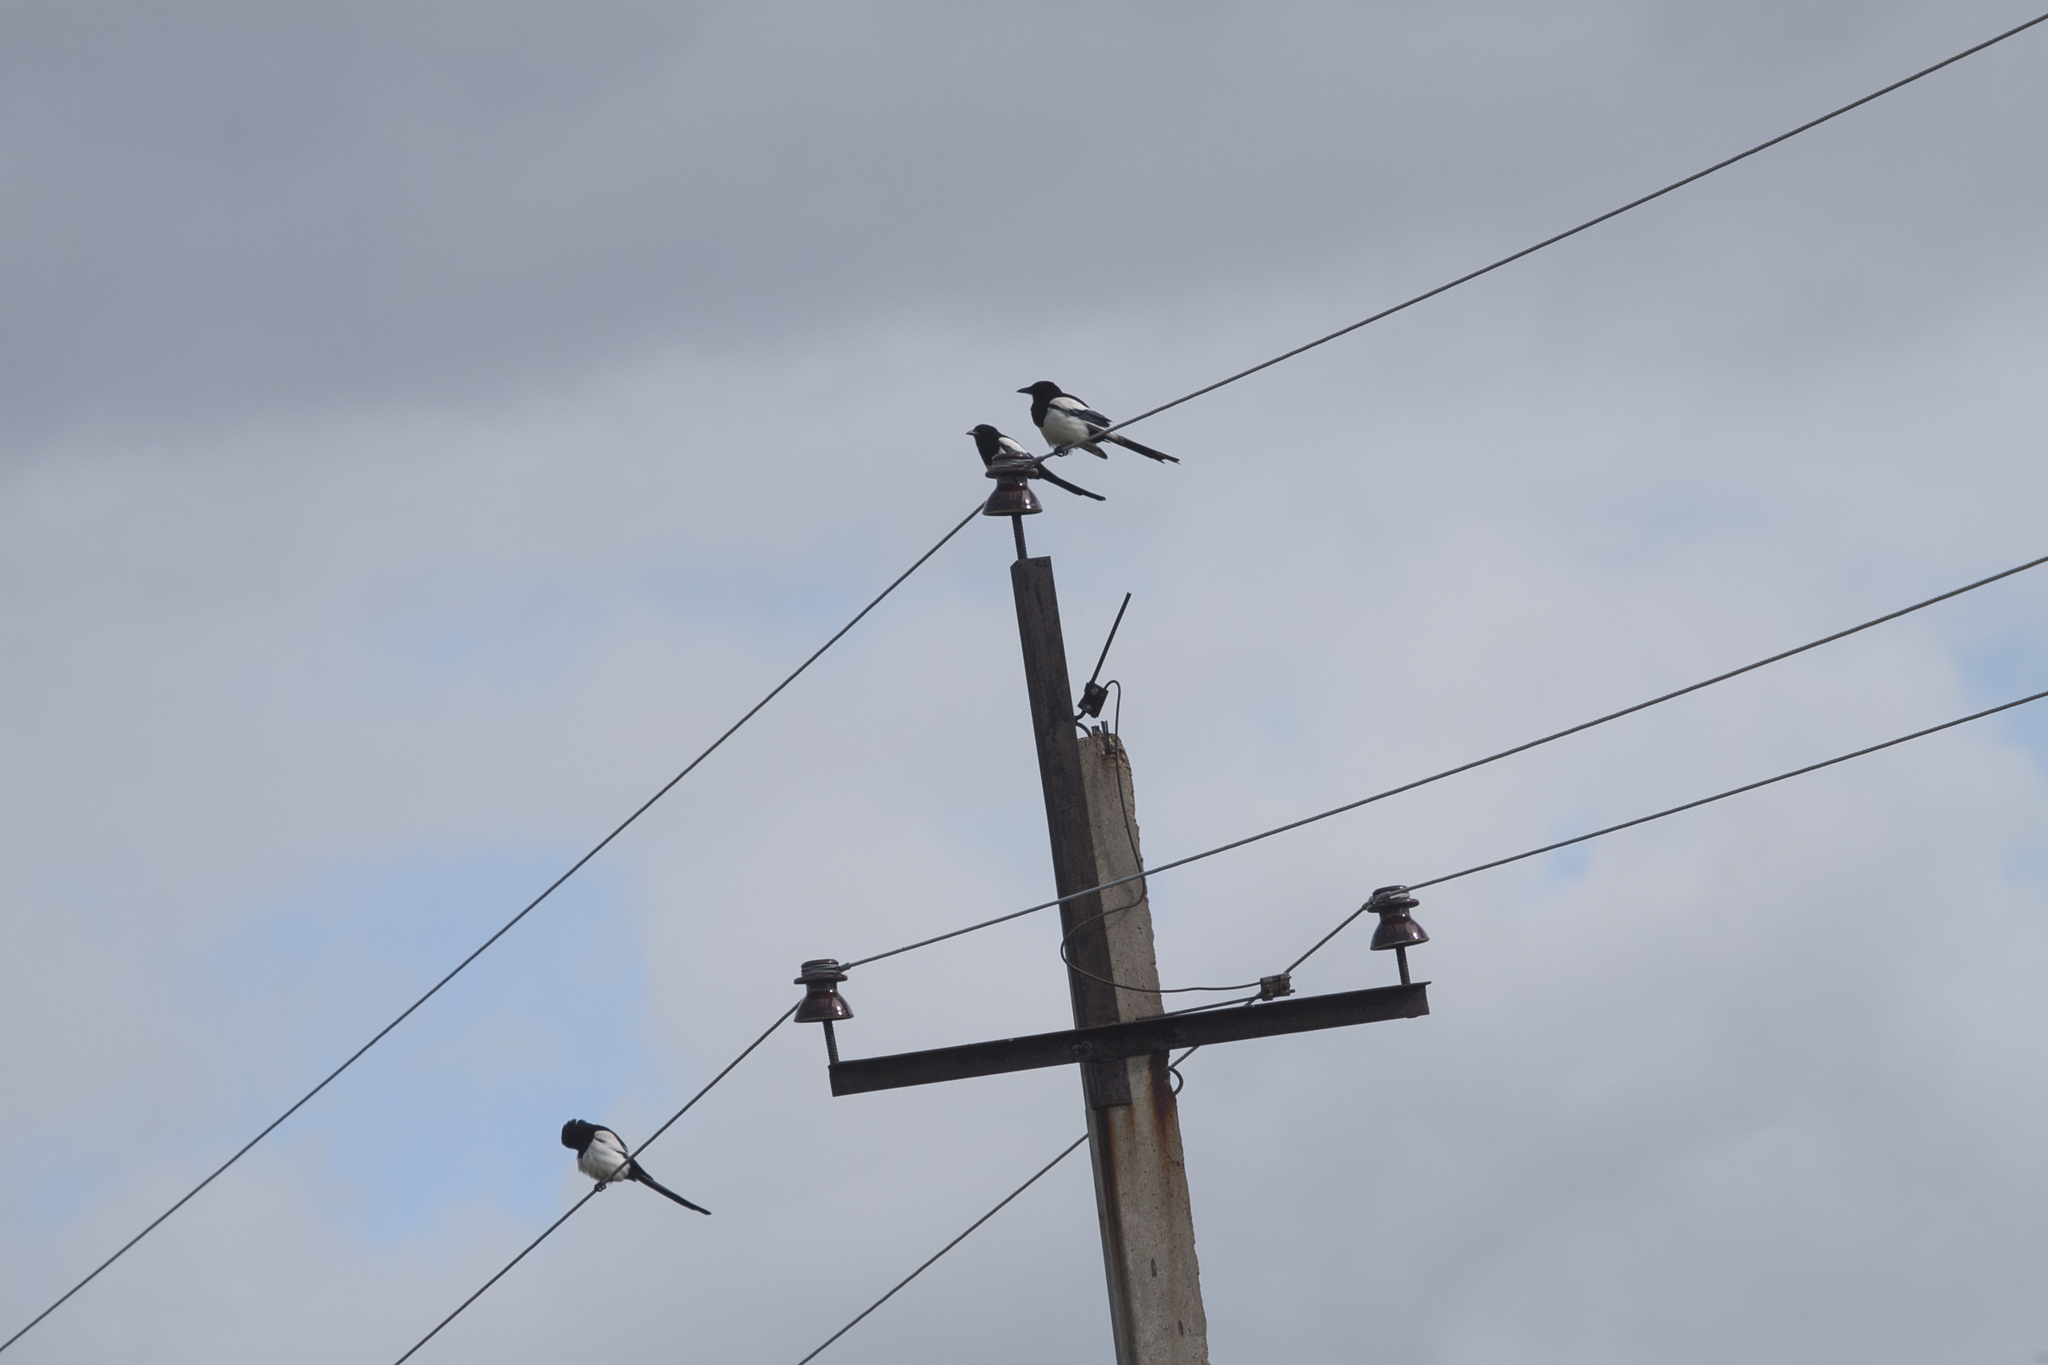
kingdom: Animalia
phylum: Chordata
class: Aves
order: Passeriformes
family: Corvidae
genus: Pica
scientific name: Pica pica
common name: Eurasian magpie
